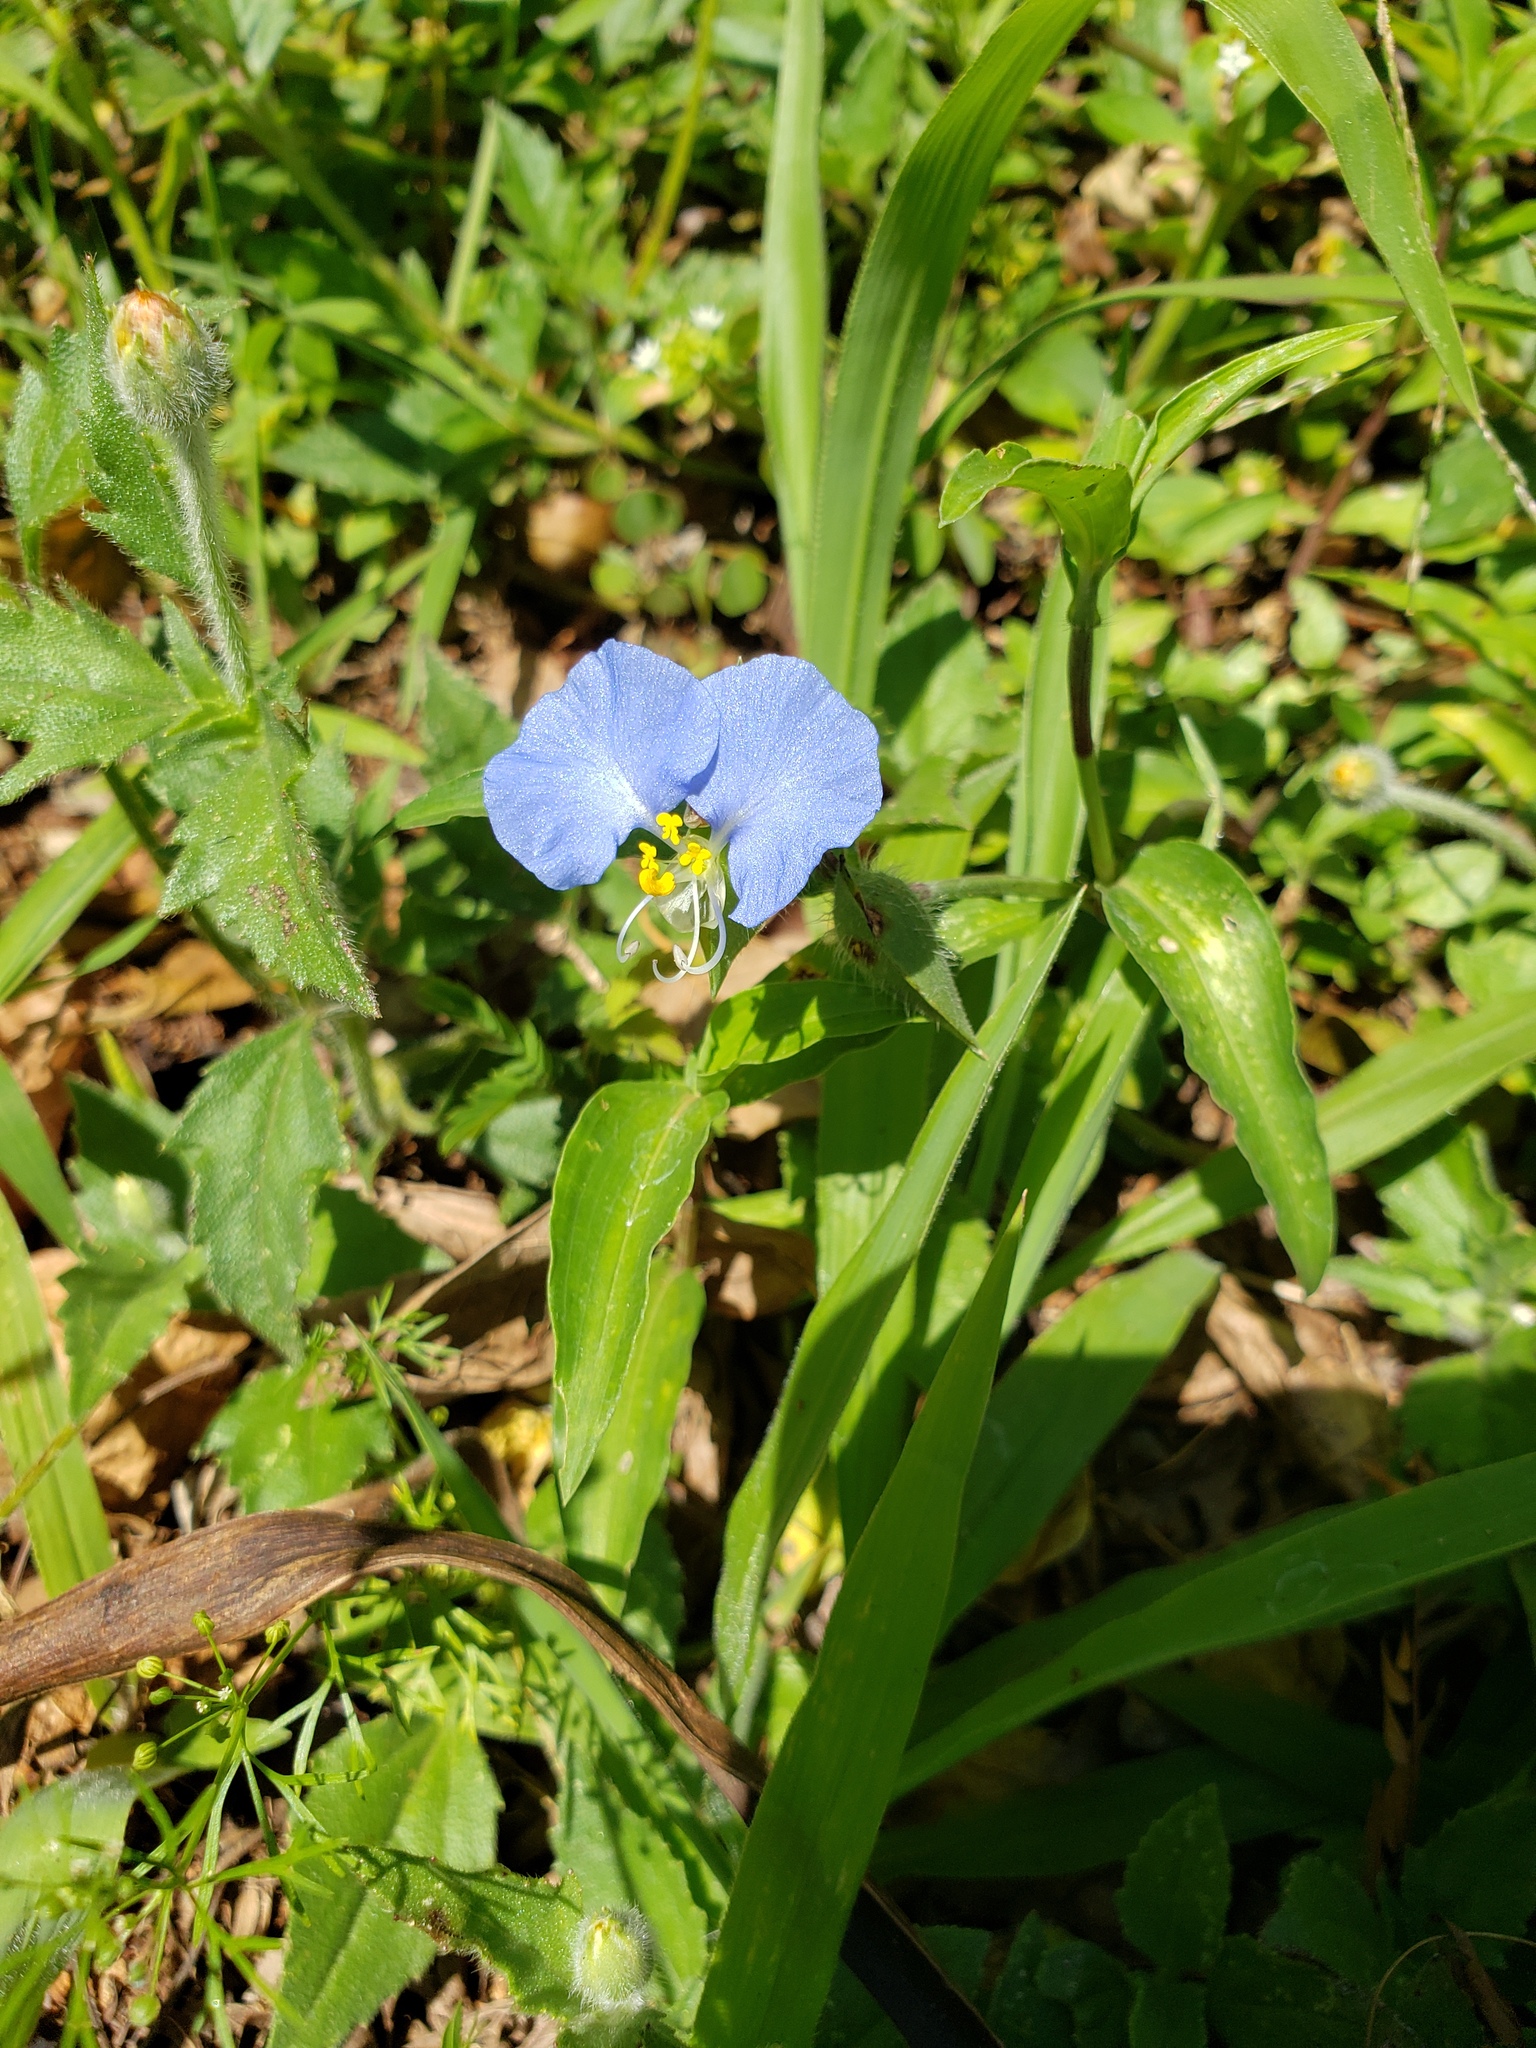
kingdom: Plantae
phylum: Tracheophyta
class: Liliopsida
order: Commelinales
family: Commelinaceae
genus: Commelina
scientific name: Commelina erecta
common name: Blousel blommetjie
